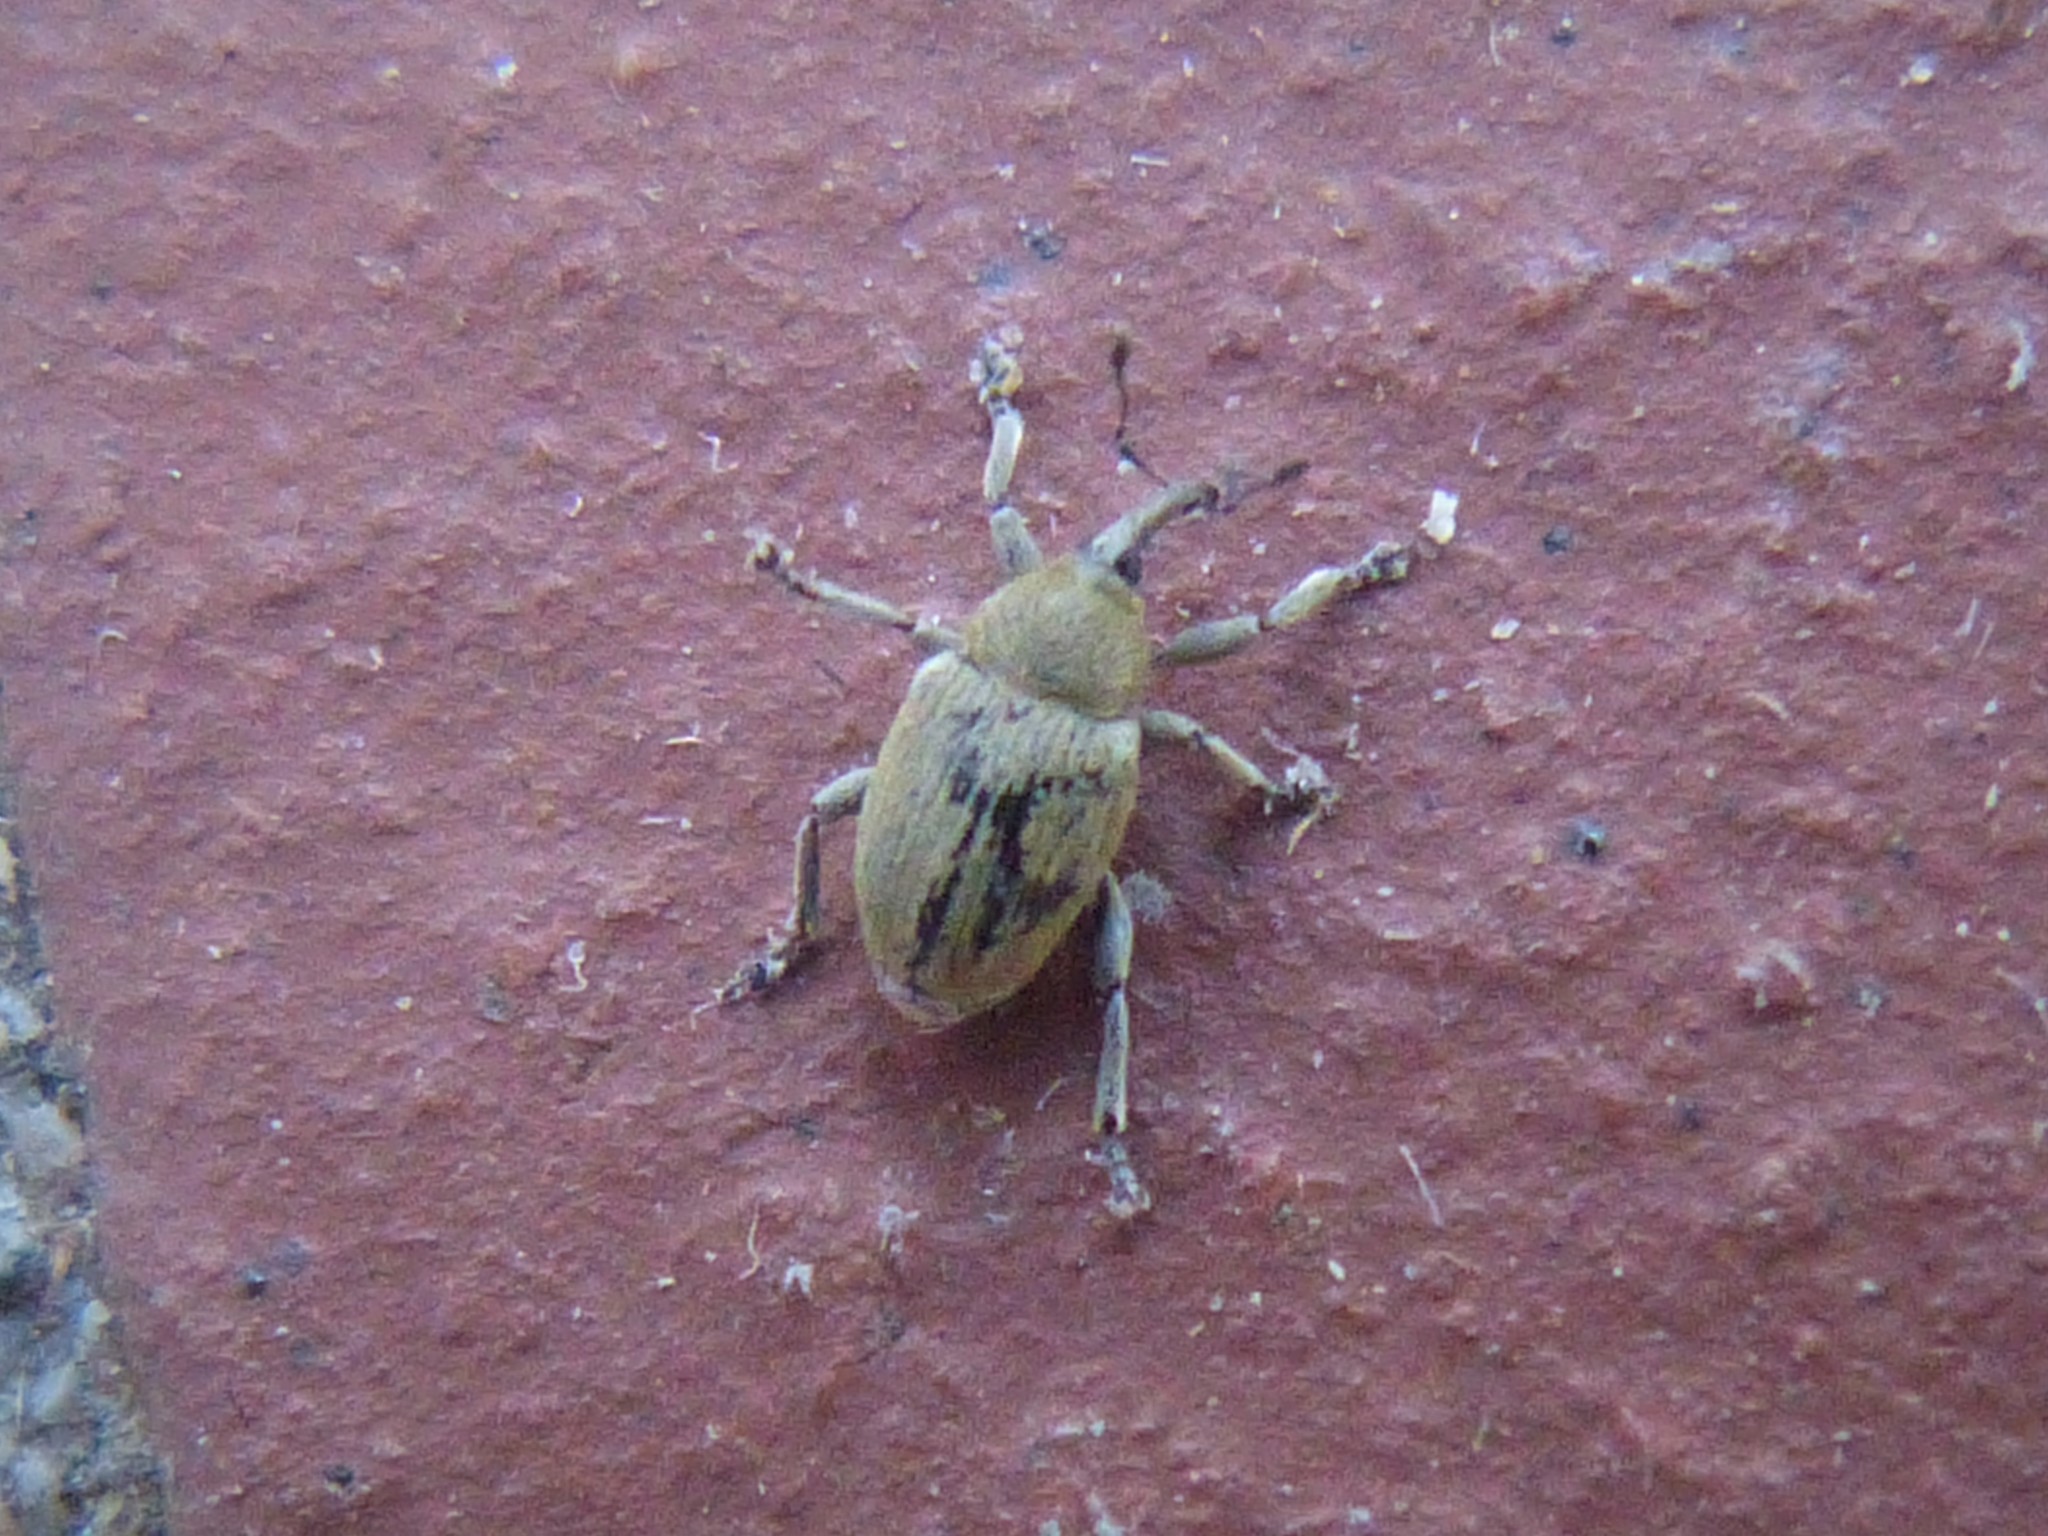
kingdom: Animalia
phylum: Arthropoda
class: Insecta
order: Coleoptera
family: Curculionidae
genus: Sibinia
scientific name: Sibinia viscariae
